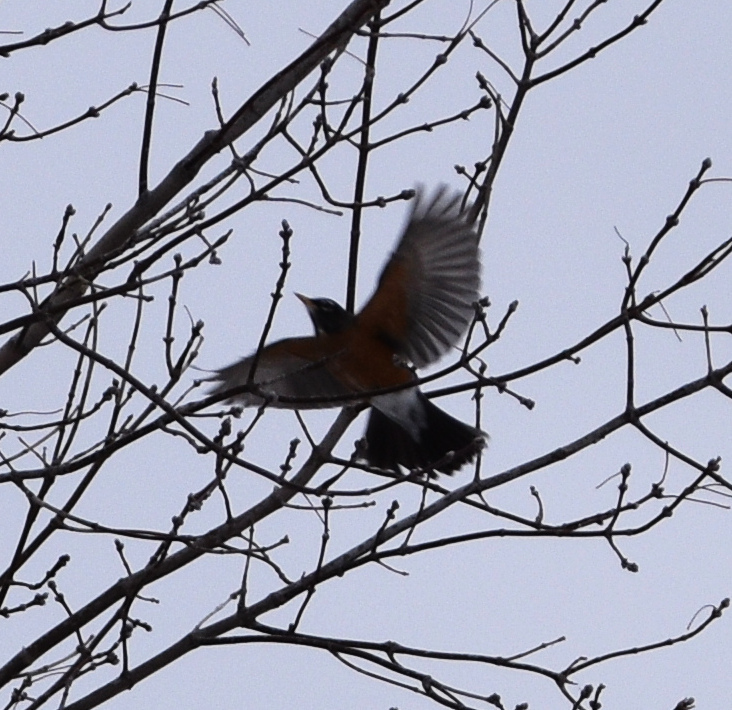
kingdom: Animalia
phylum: Chordata
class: Aves
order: Passeriformes
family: Turdidae
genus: Turdus
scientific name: Turdus migratorius
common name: American robin
